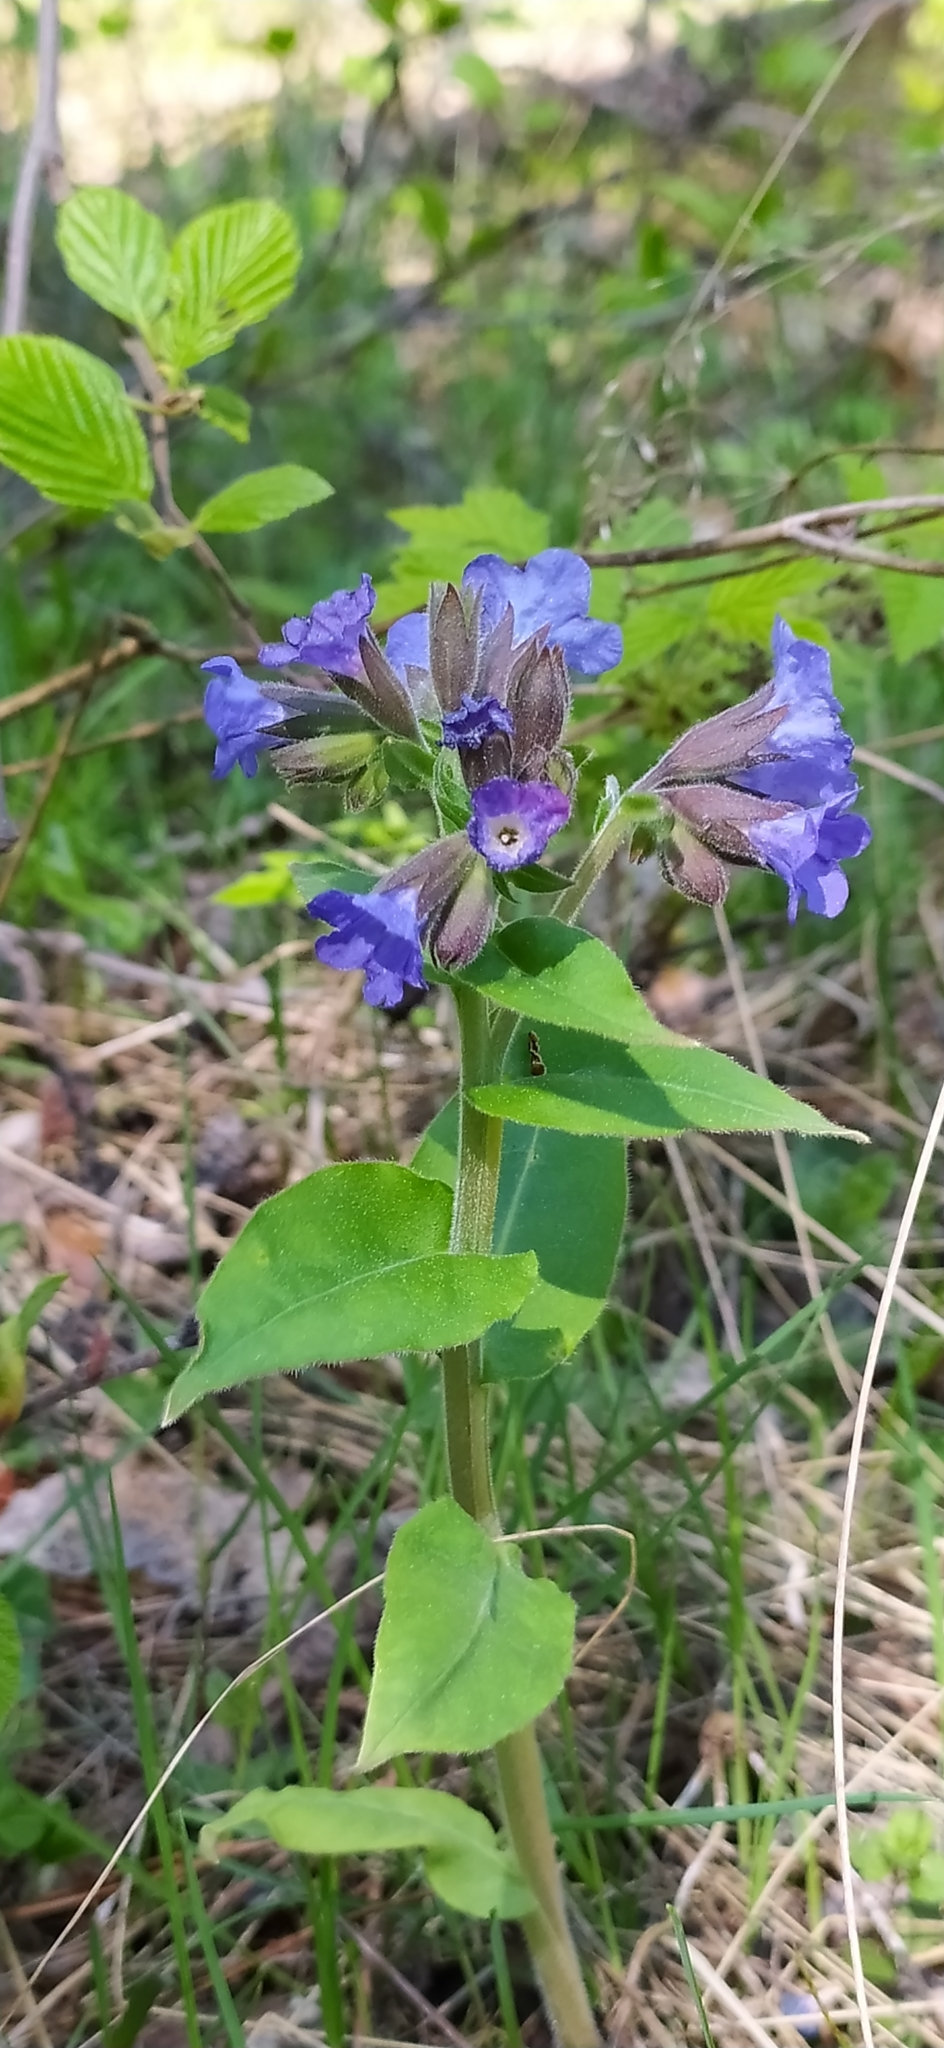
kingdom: Plantae
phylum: Tracheophyta
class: Magnoliopsida
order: Boraginales
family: Boraginaceae
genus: Pulmonaria
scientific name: Pulmonaria mollis
